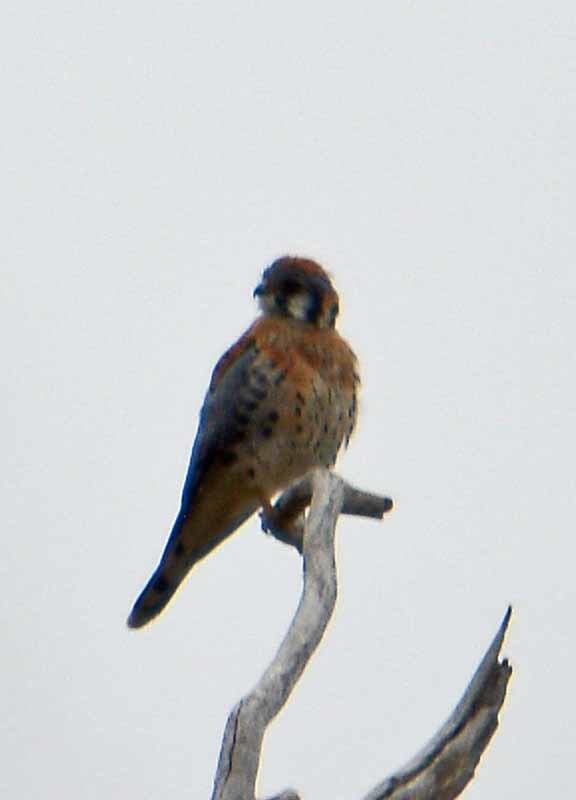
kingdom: Animalia
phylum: Chordata
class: Aves
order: Falconiformes
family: Falconidae
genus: Falco
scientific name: Falco sparverius
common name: American kestrel
